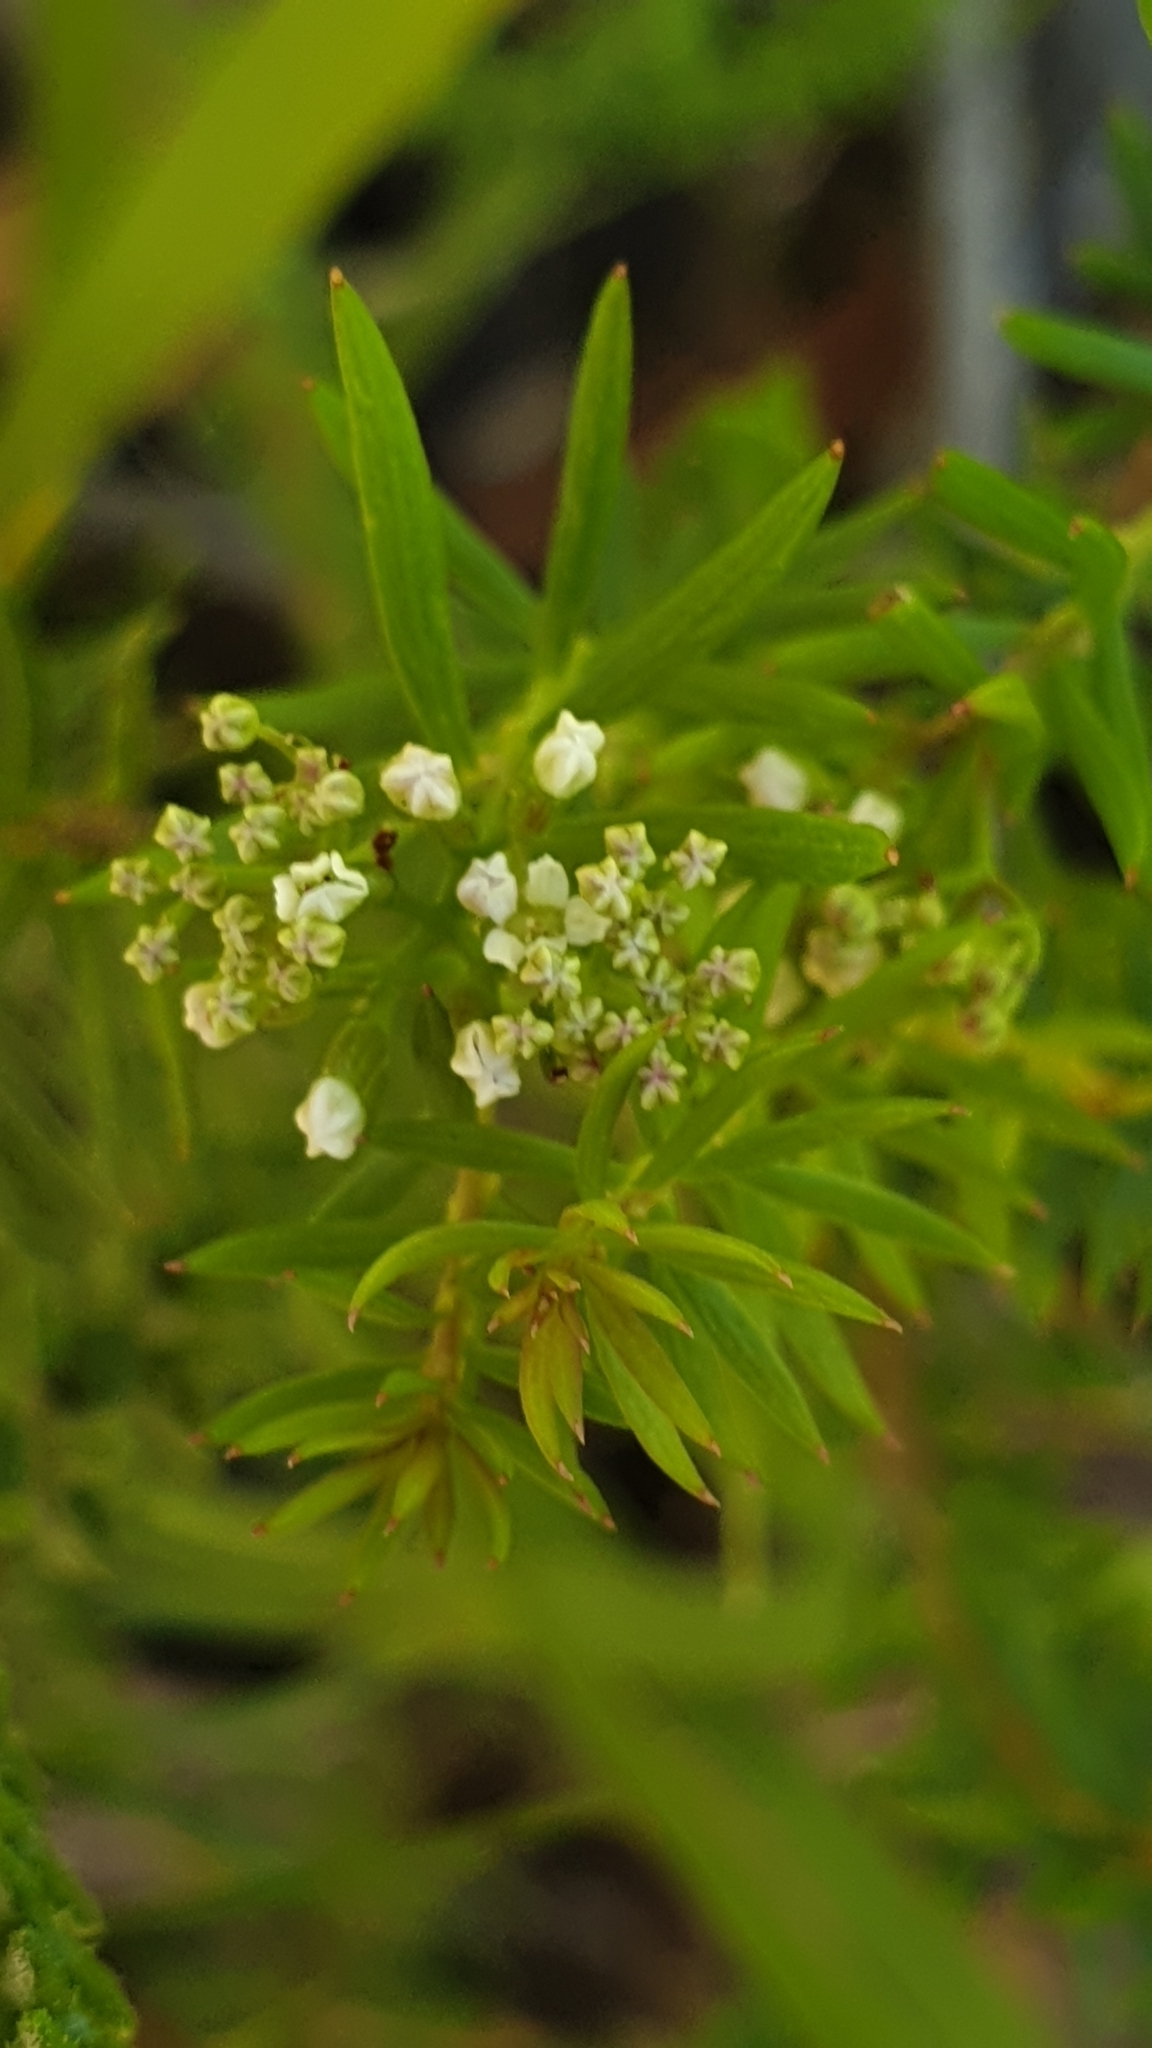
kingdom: Plantae
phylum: Tracheophyta
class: Magnoliopsida
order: Apiales
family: Apiaceae
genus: Platysace
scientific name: Platysace ericoides
